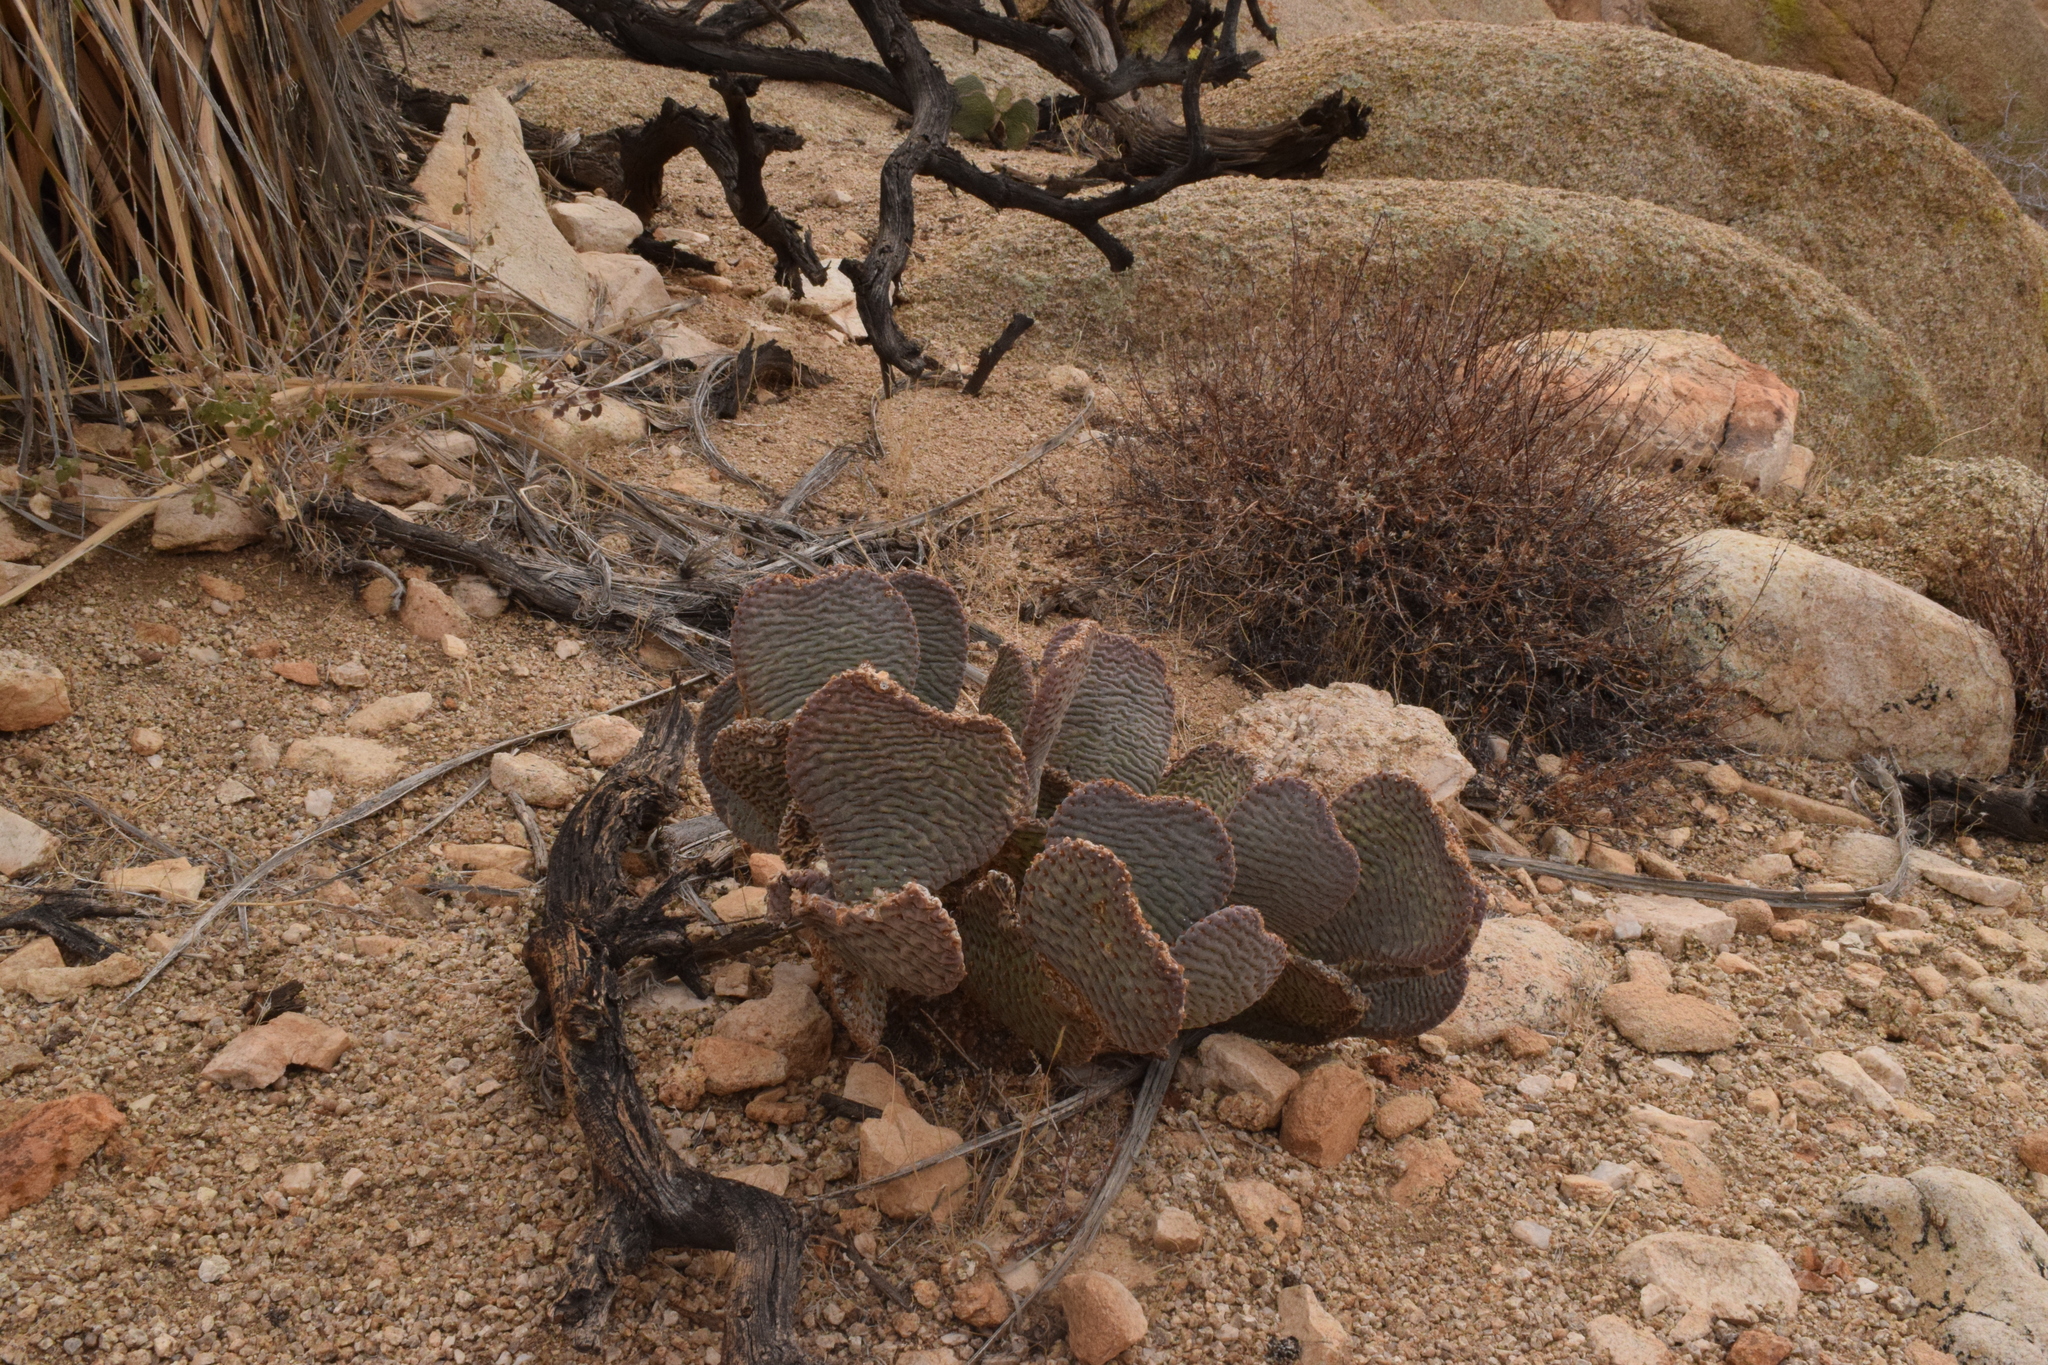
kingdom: Plantae
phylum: Tracheophyta
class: Magnoliopsida
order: Caryophyllales
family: Cactaceae
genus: Opuntia
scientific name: Opuntia basilaris
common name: Beavertail prickly-pear
